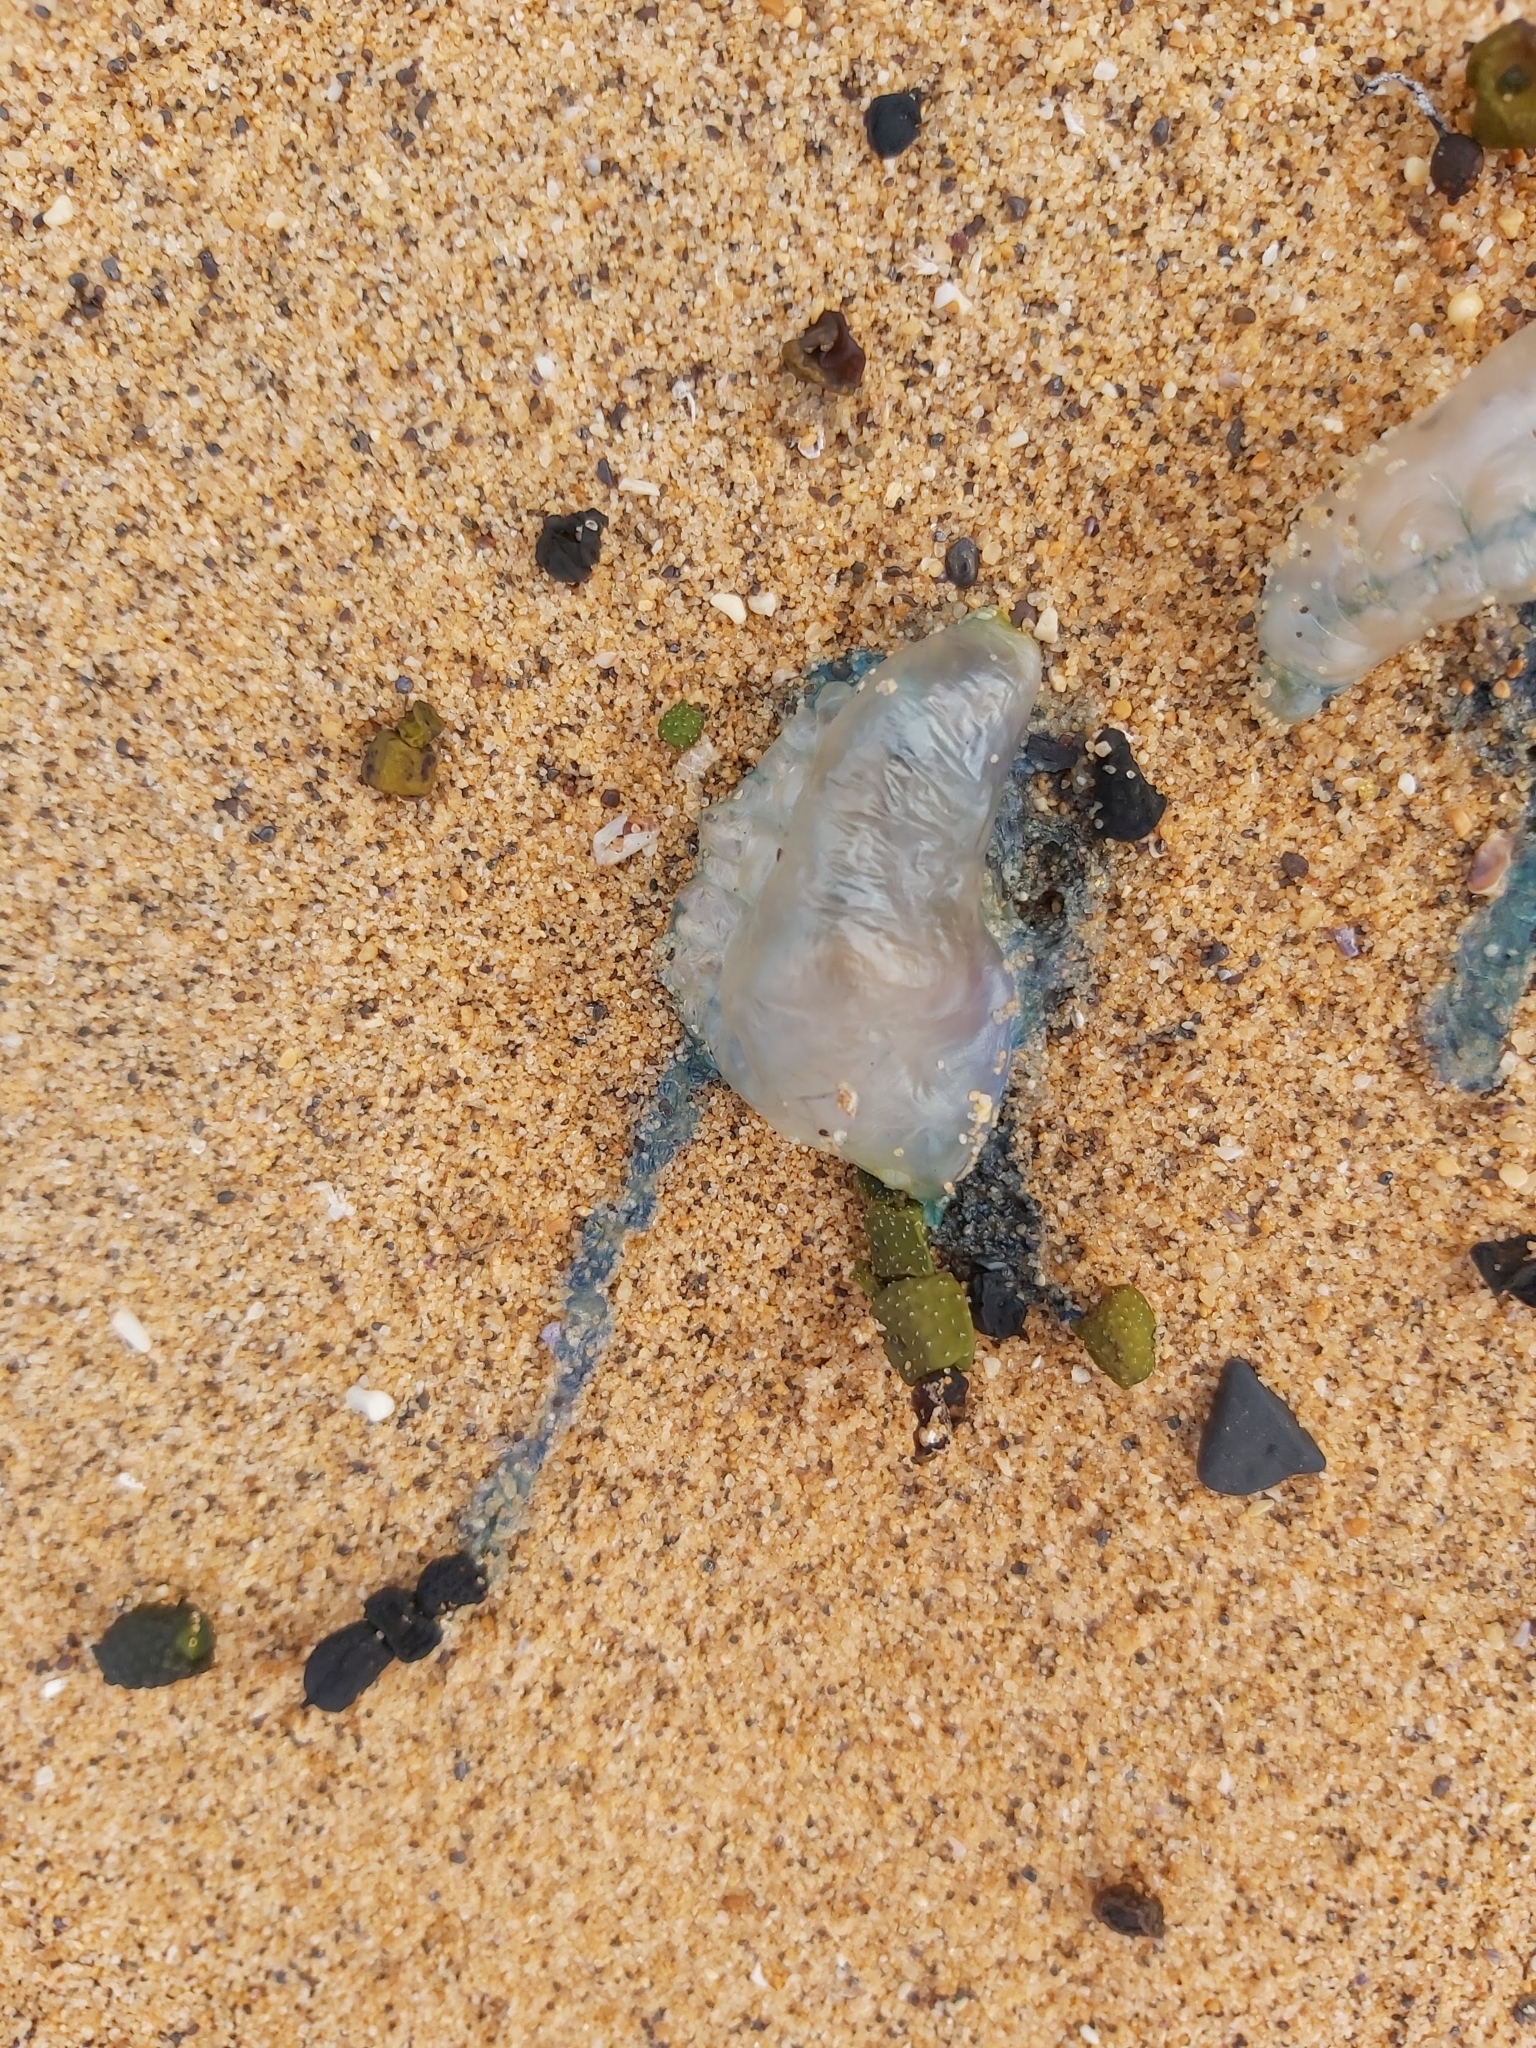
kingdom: Animalia
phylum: Cnidaria
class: Hydrozoa
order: Siphonophorae
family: Physaliidae
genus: Physalia
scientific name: Physalia physalis
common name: Portuguese man-of-war
